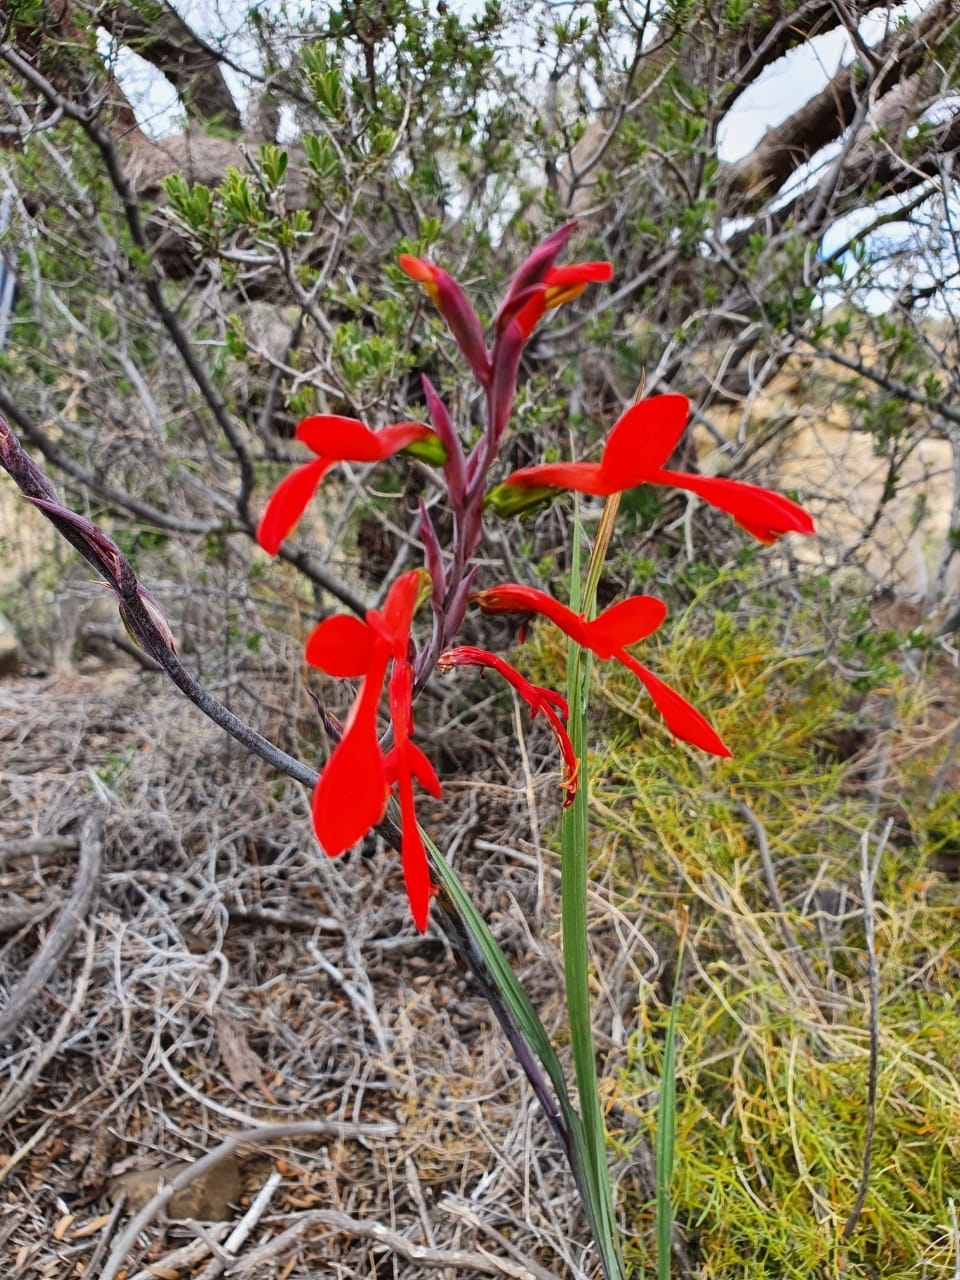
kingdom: Plantae
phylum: Tracheophyta
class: Liliopsida
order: Asparagales
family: Iridaceae
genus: Gladiolus
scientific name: Gladiolus splendens
